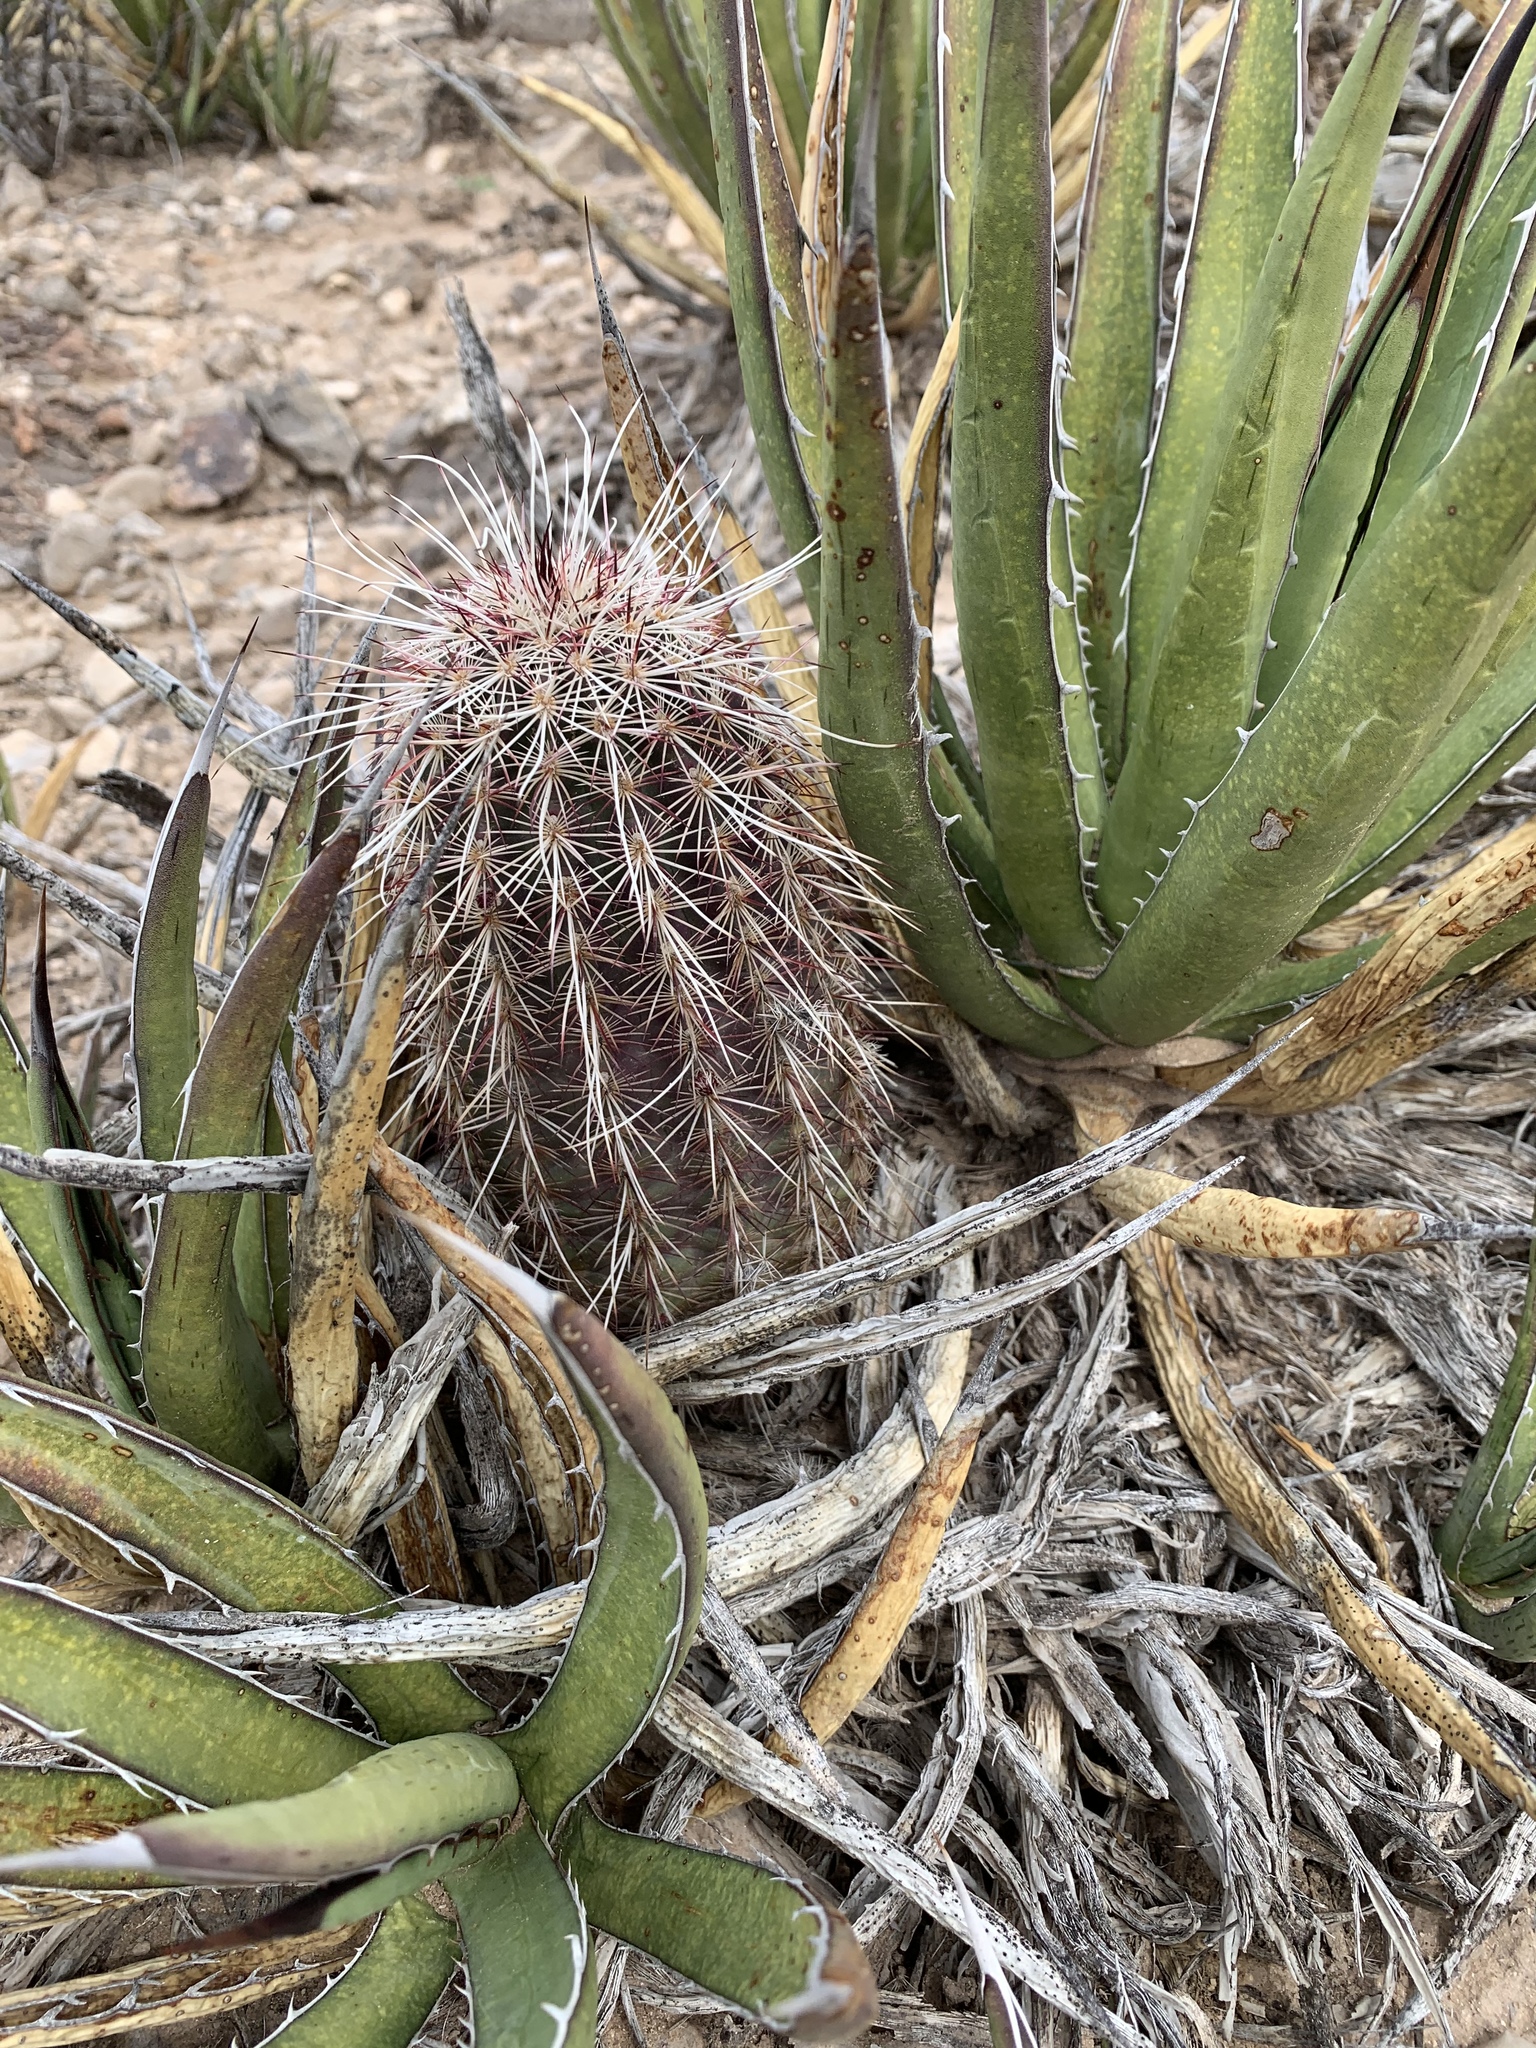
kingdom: Plantae
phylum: Tracheophyta
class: Magnoliopsida
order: Caryophyllales
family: Cactaceae
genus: Echinocereus
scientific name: Echinocereus viridiflorus
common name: Nylon hedgehog cactus
